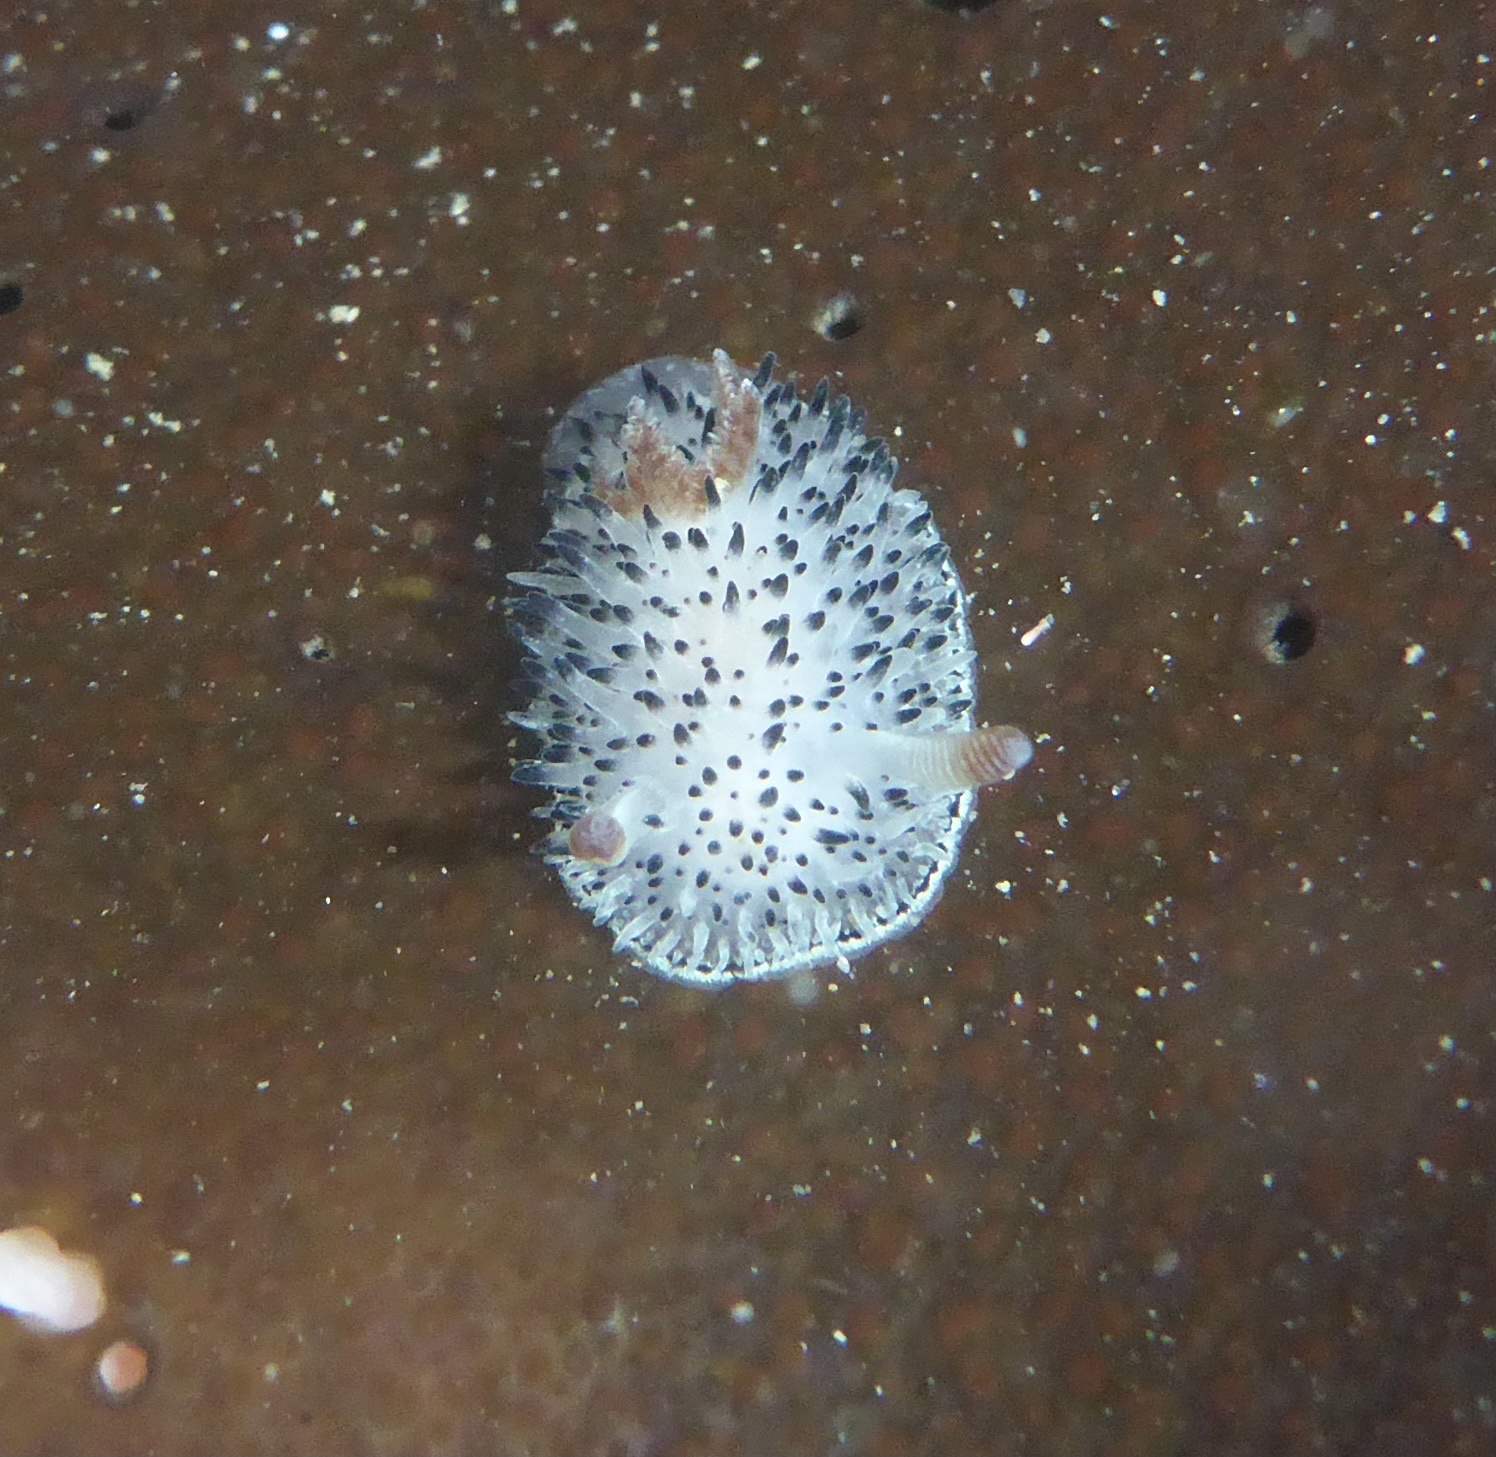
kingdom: Animalia
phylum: Mollusca
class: Gastropoda
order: Nudibranchia
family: Onchidorididae
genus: Acanthodoris
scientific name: Acanthodoris rhodoceras
